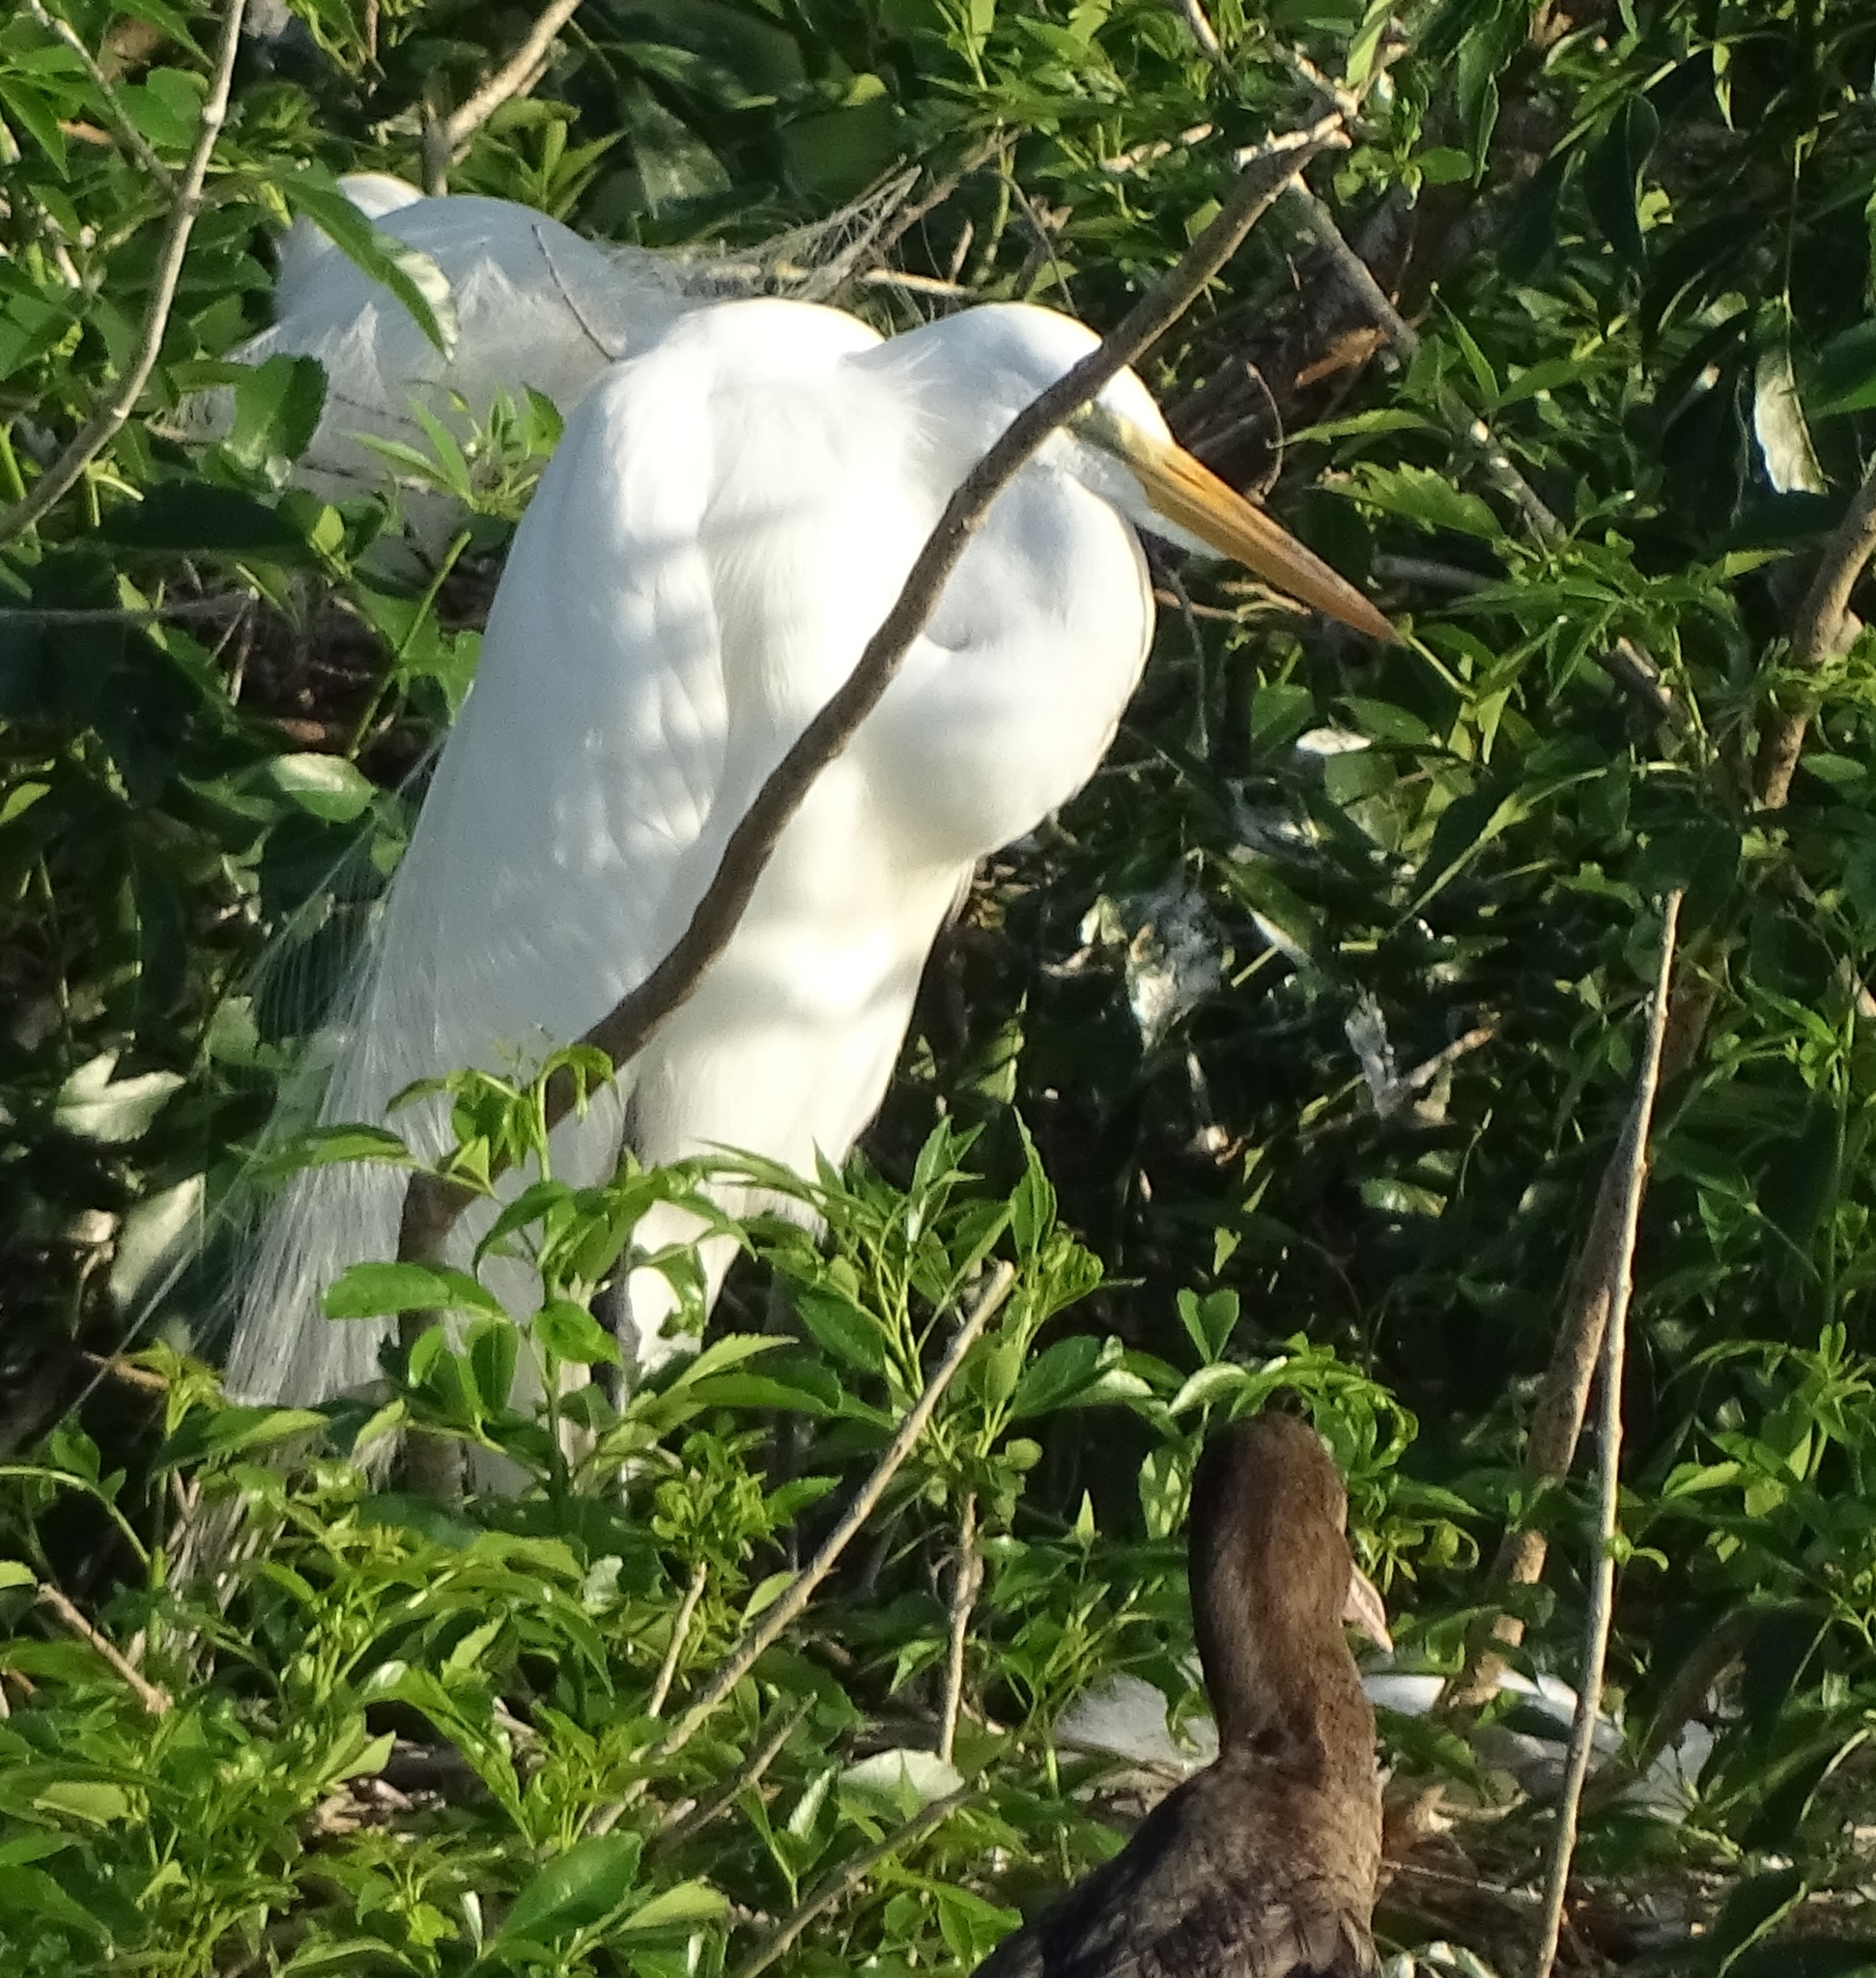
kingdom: Animalia
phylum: Chordata
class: Aves
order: Pelecaniformes
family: Ardeidae
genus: Ardea
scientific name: Ardea alba
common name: Great egret
